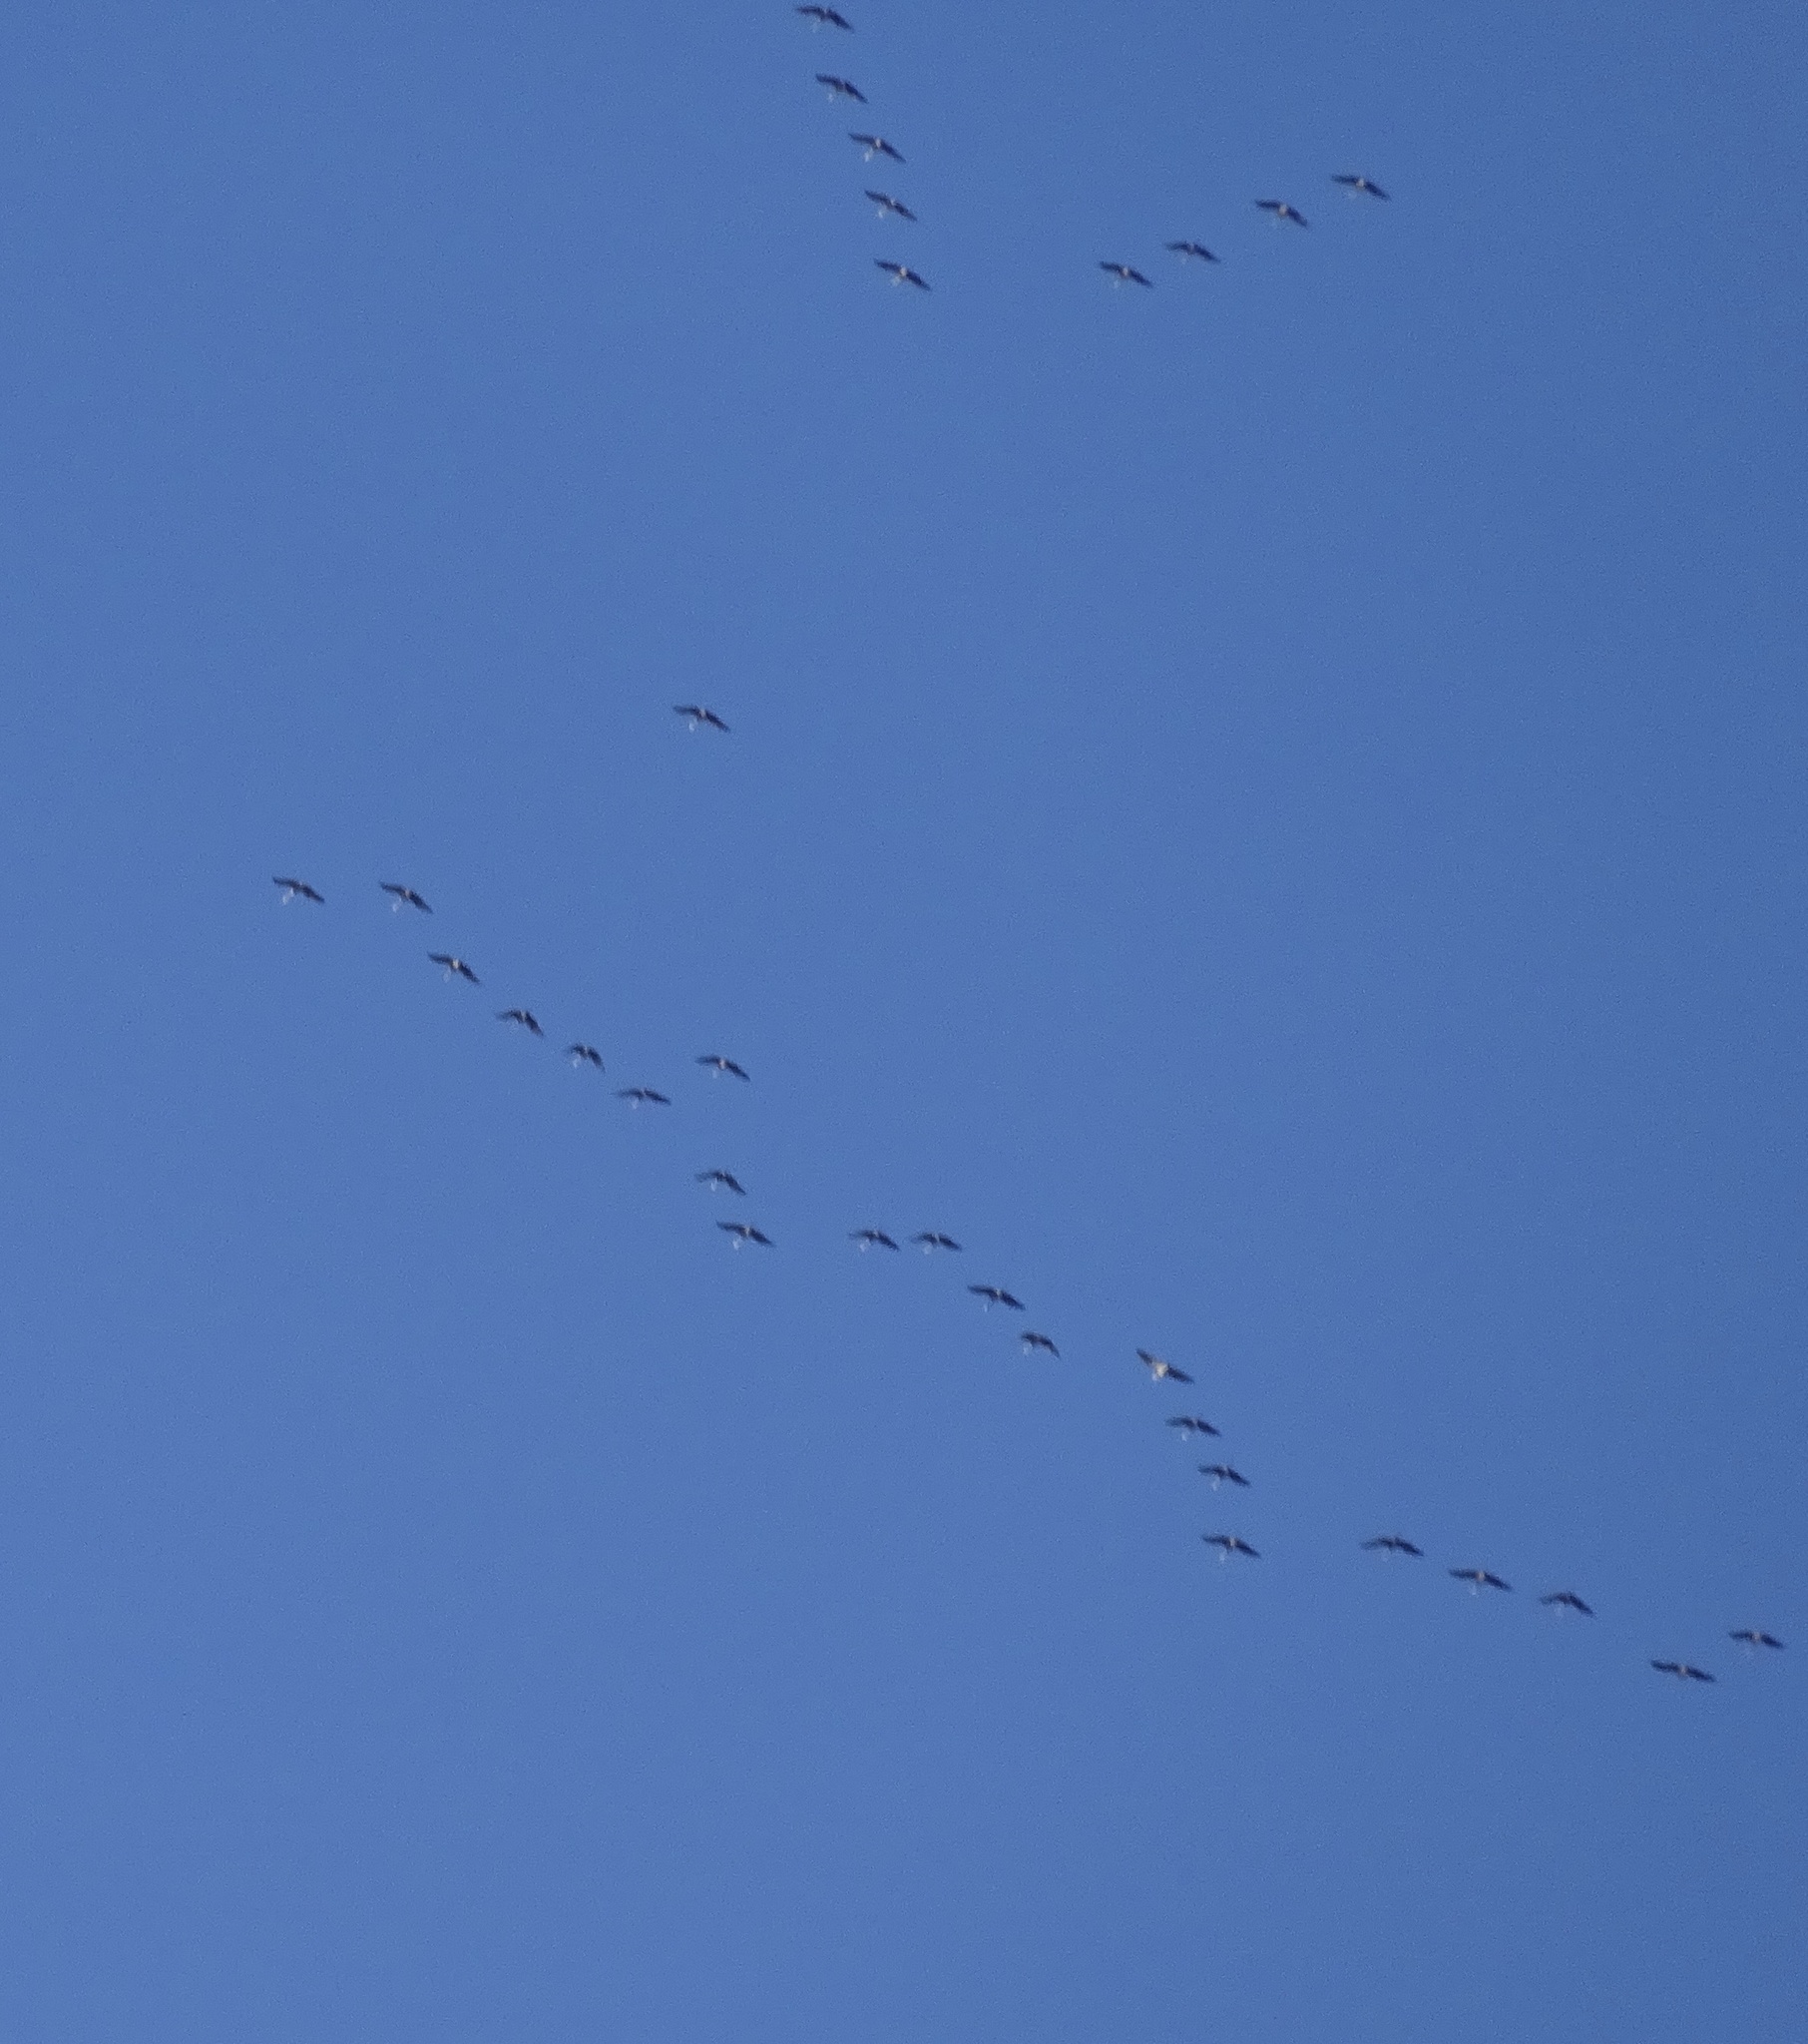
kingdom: Animalia
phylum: Chordata
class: Aves
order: Gruiformes
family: Gruidae
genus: Grus
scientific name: Grus canadensis
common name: Sandhill crane
